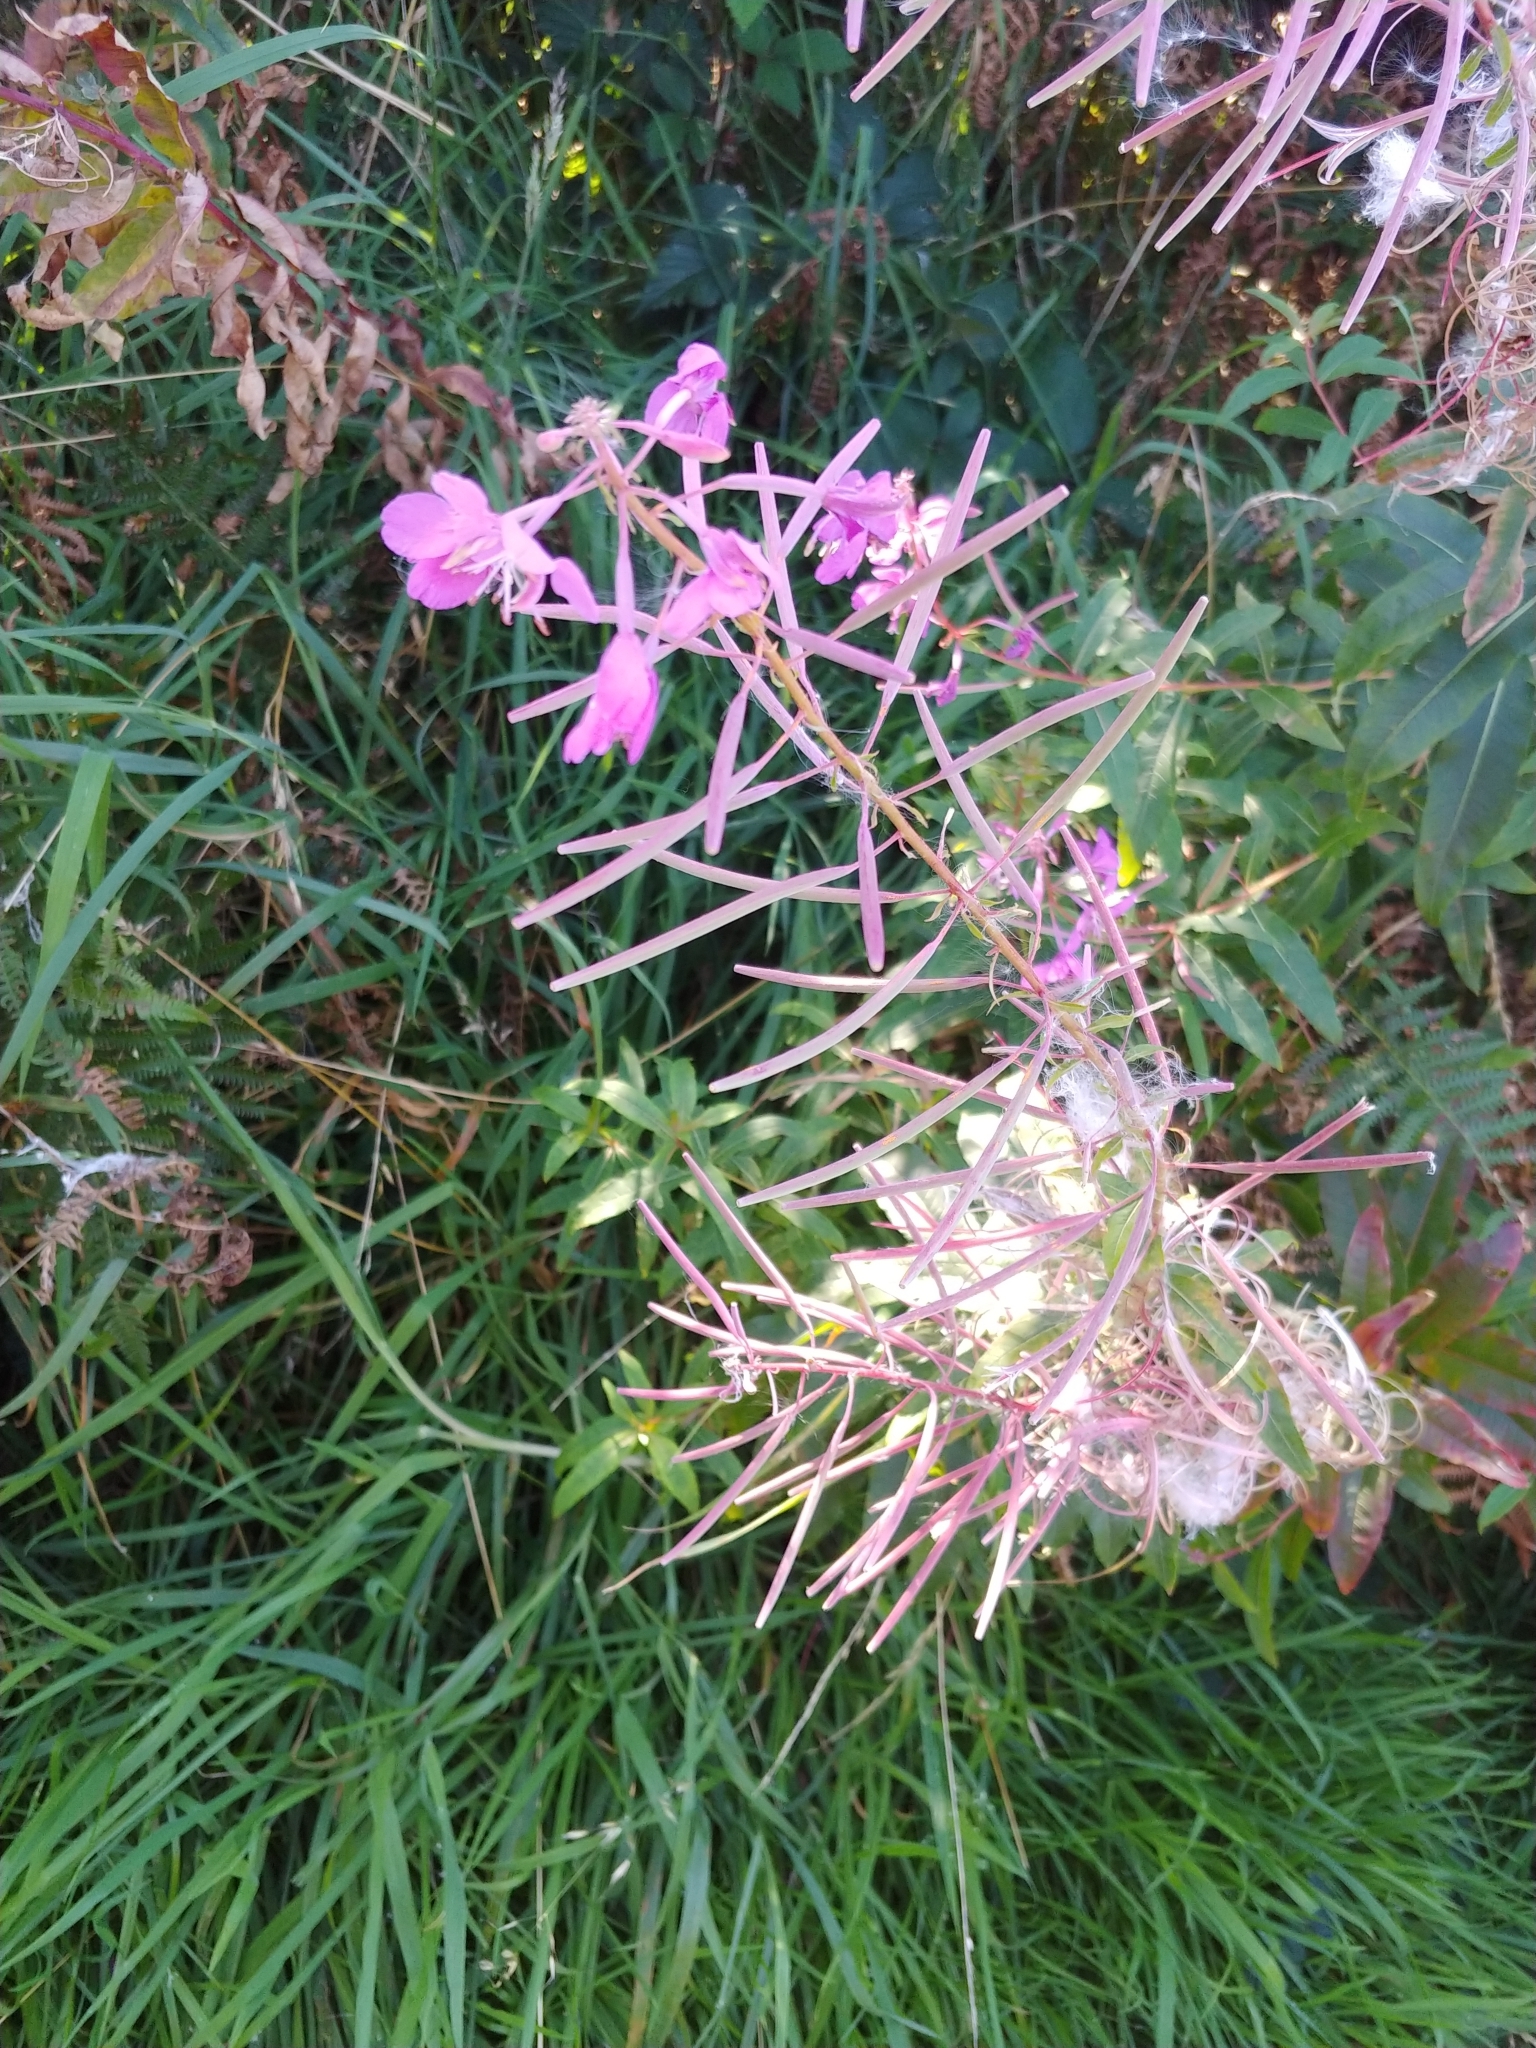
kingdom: Plantae
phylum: Tracheophyta
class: Magnoliopsida
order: Myrtales
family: Onagraceae
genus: Chamaenerion
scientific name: Chamaenerion angustifolium
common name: Fireweed
